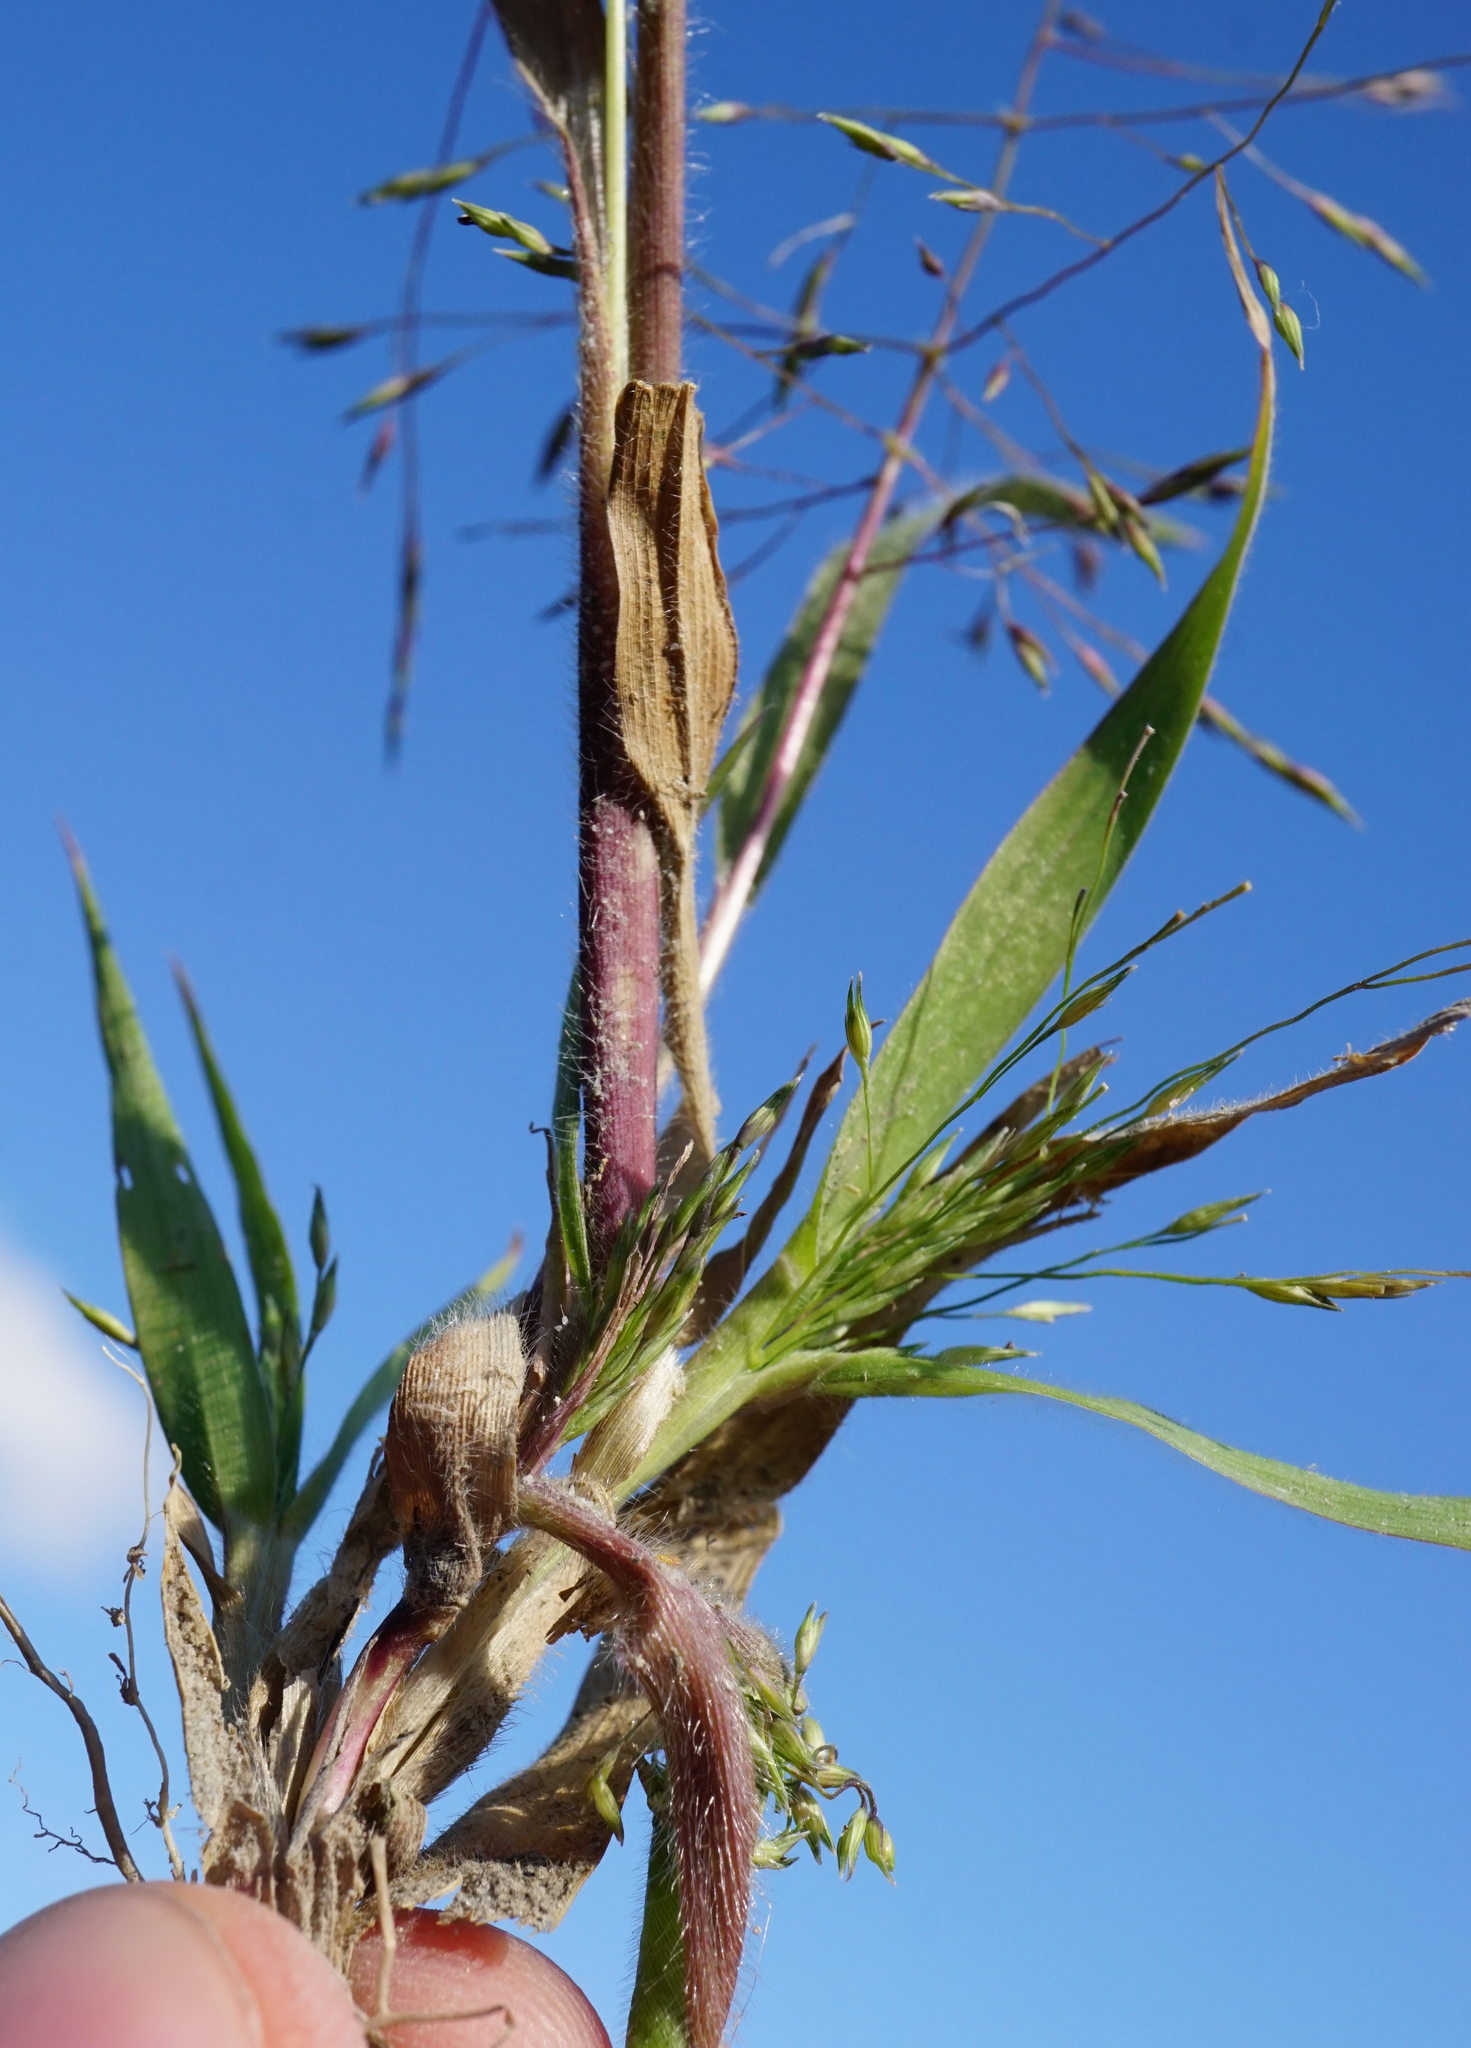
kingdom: Plantae
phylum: Tracheophyta
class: Liliopsida
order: Poales
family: Poaceae
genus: Panicum
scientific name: Panicum capillare
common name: Witch-grass
